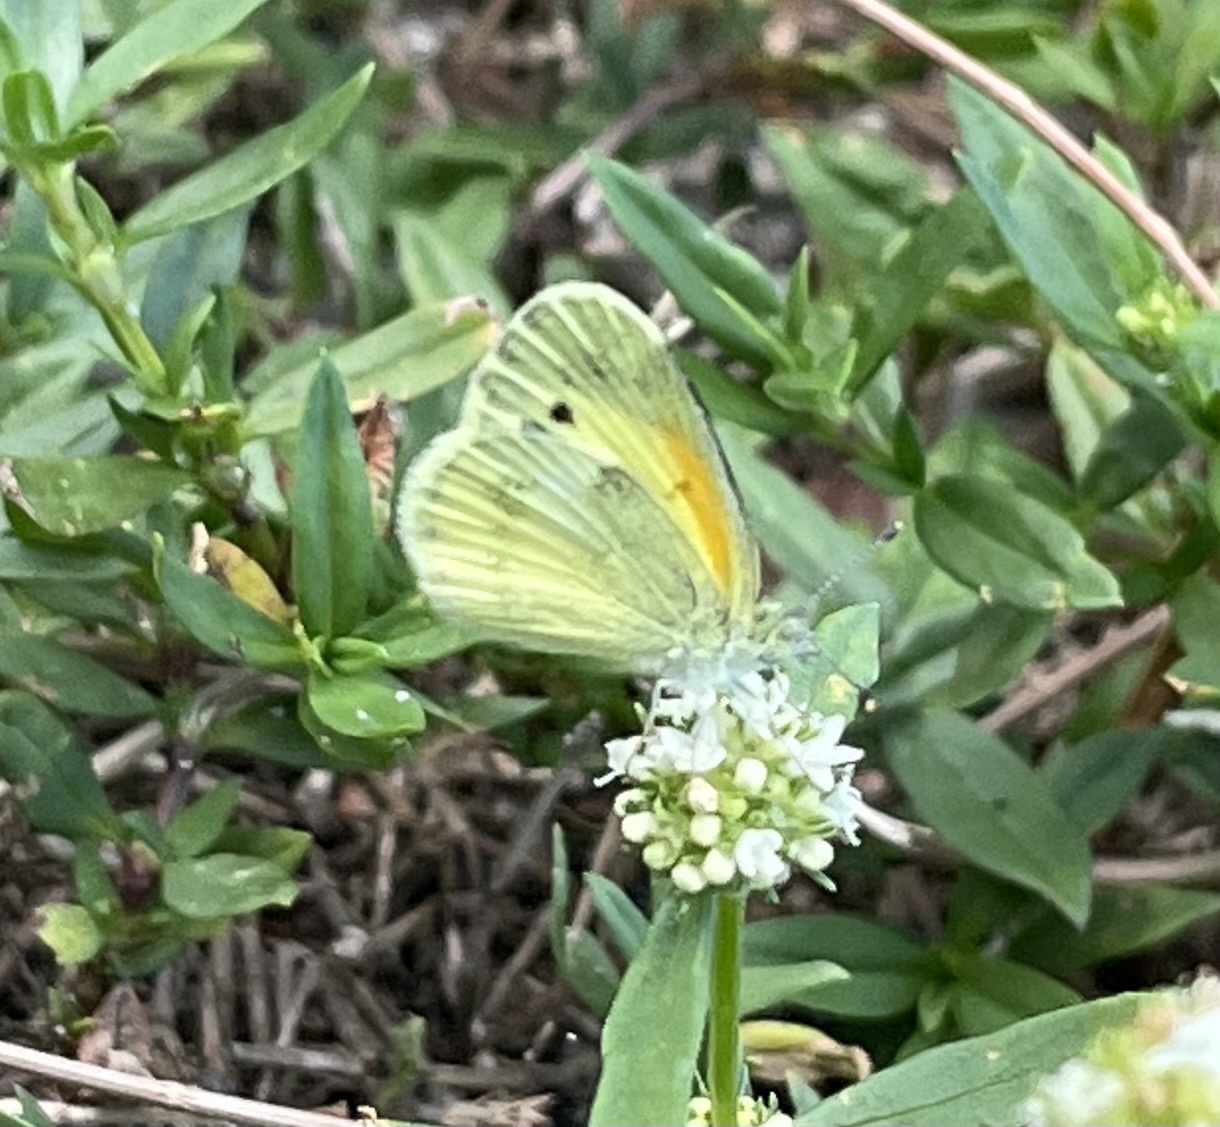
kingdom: Animalia
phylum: Arthropoda
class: Insecta
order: Lepidoptera
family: Pieridae
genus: Nathalis
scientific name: Nathalis iole
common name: Dainty sulphur
